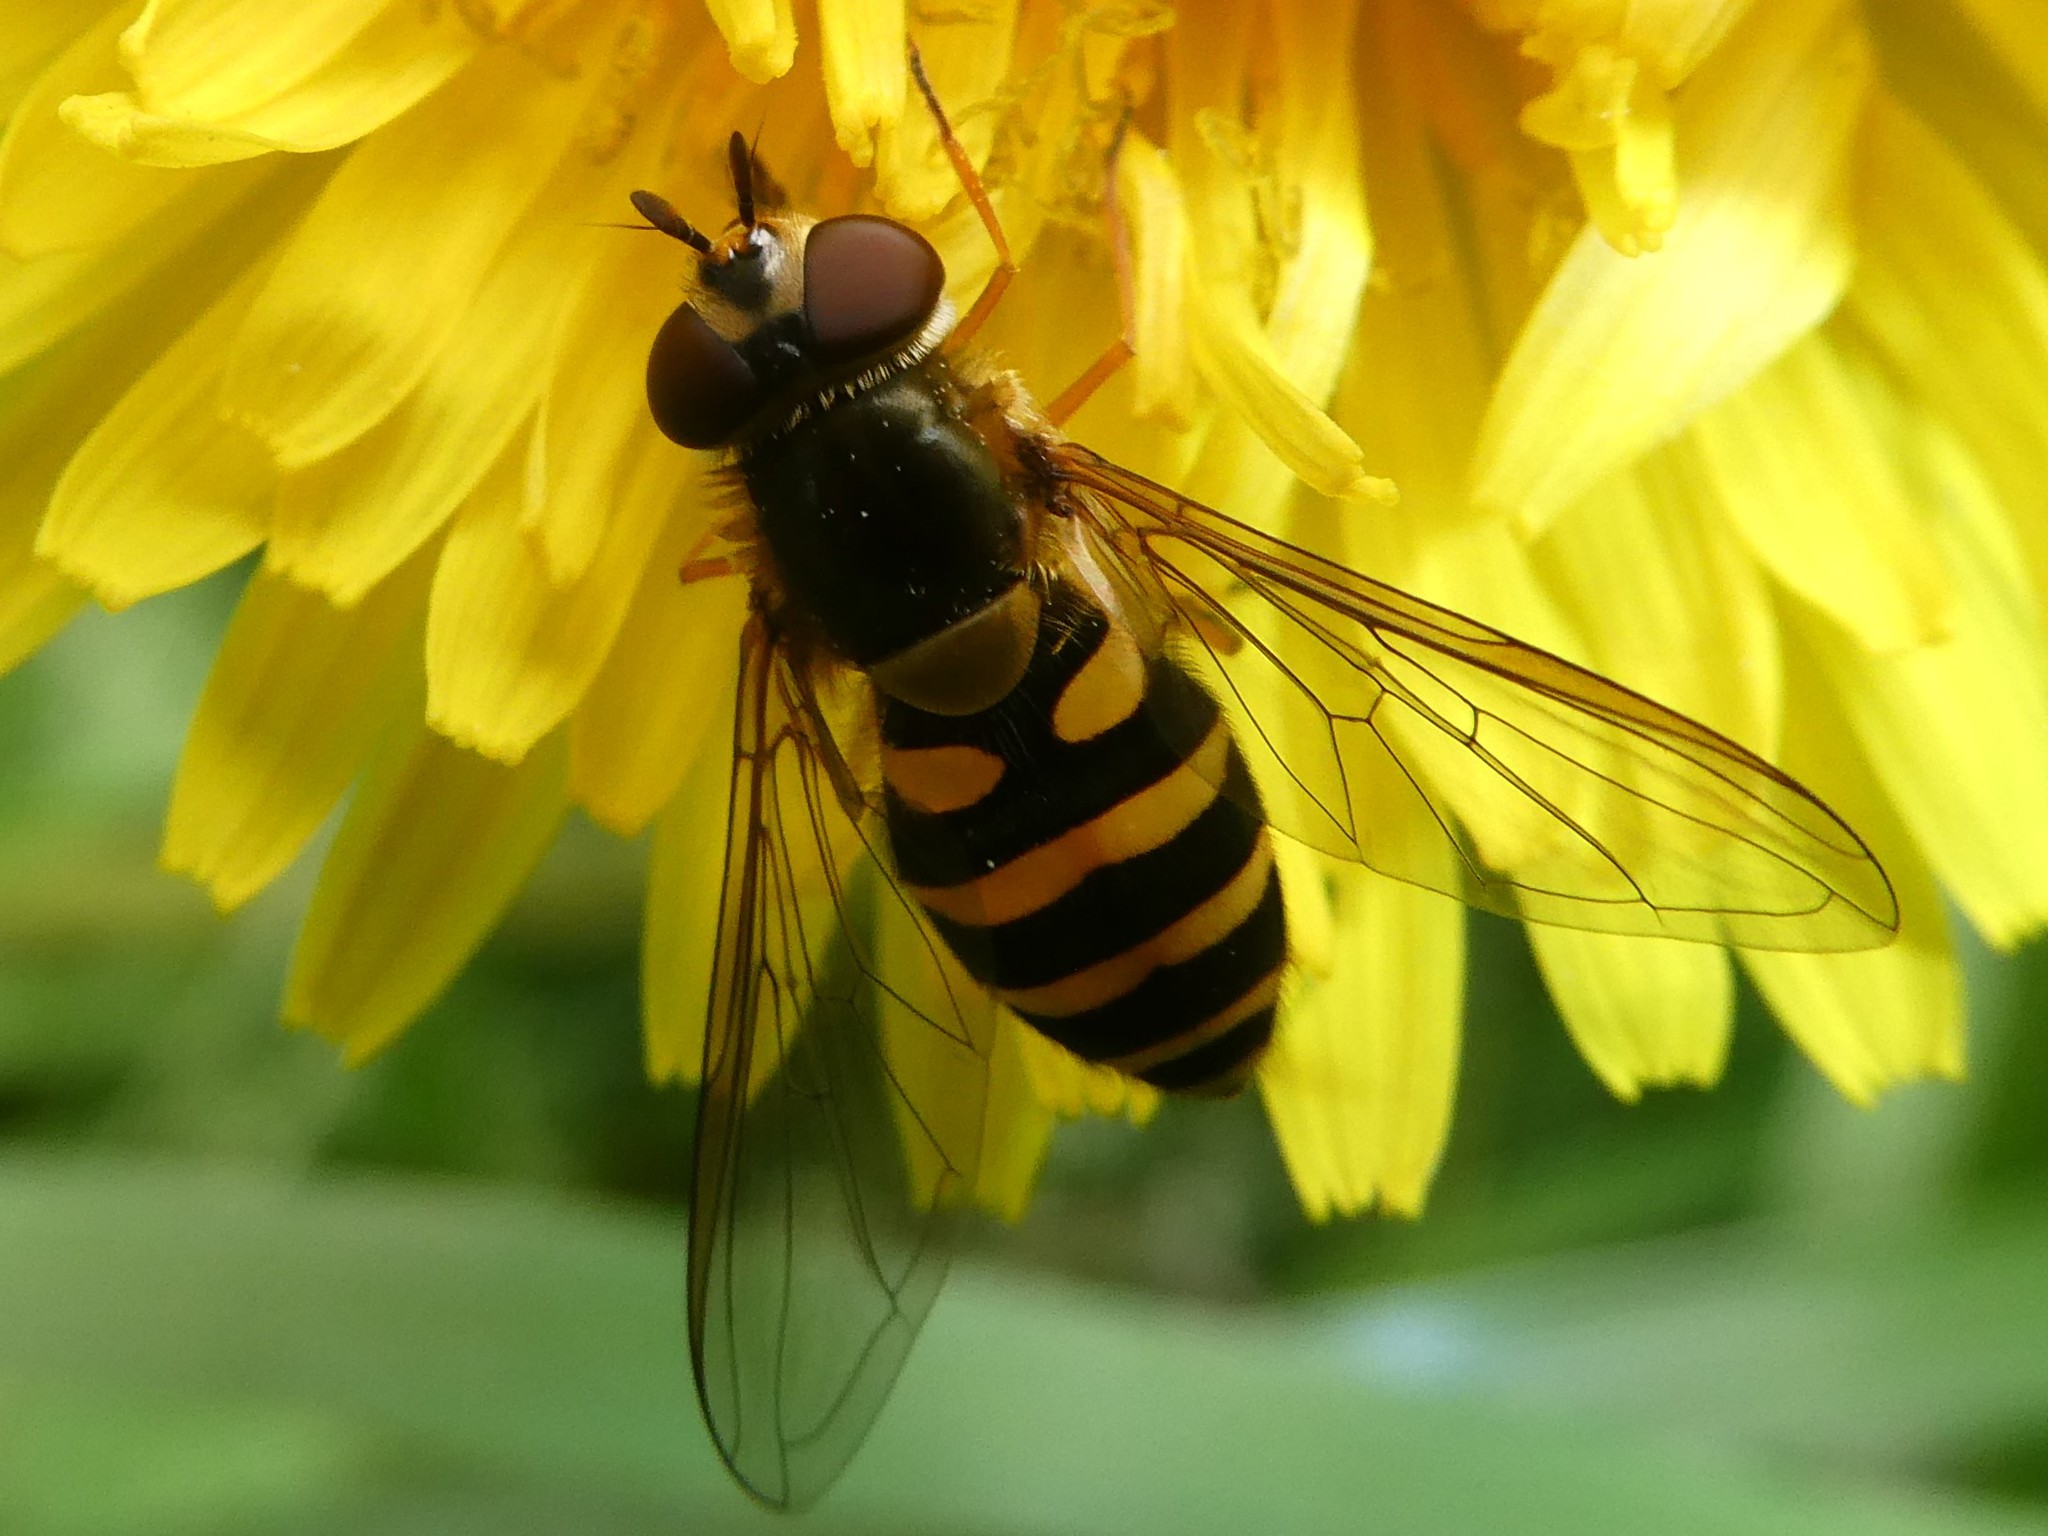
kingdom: Animalia
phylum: Arthropoda
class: Insecta
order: Diptera
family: Syrphidae
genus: Syrphus
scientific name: Syrphus
